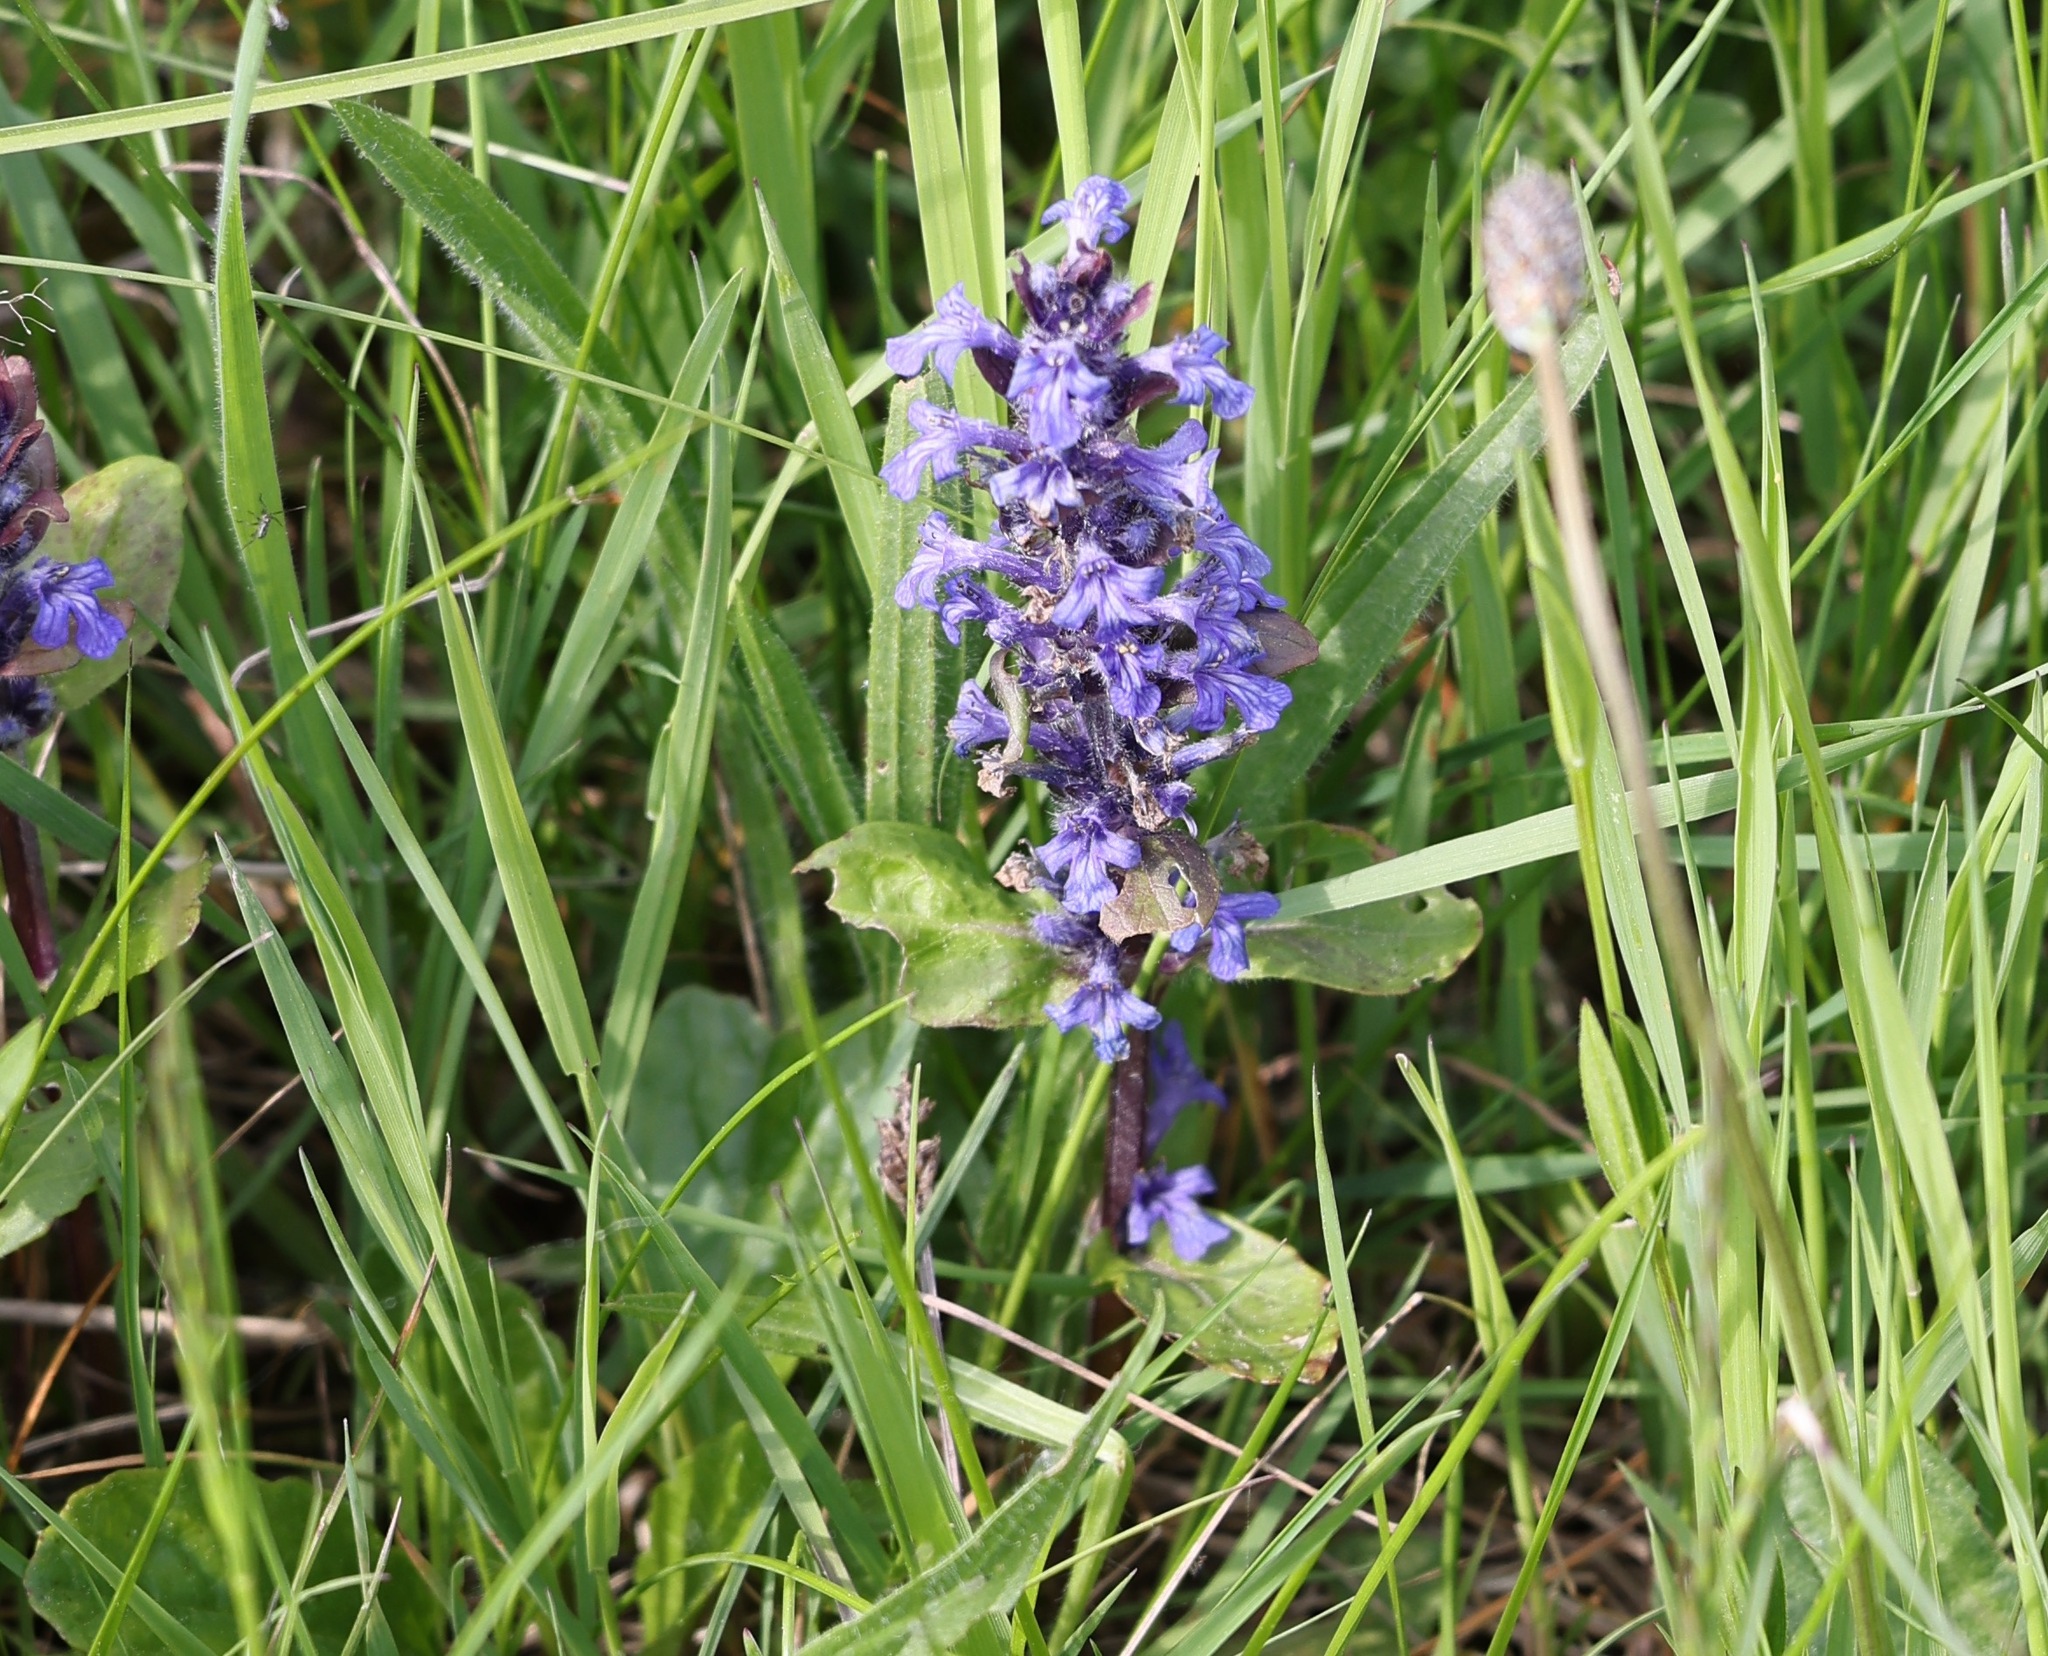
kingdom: Plantae
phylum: Tracheophyta
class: Magnoliopsida
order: Lamiales
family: Lamiaceae
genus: Ajuga
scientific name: Ajuga reptans
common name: Bugle
